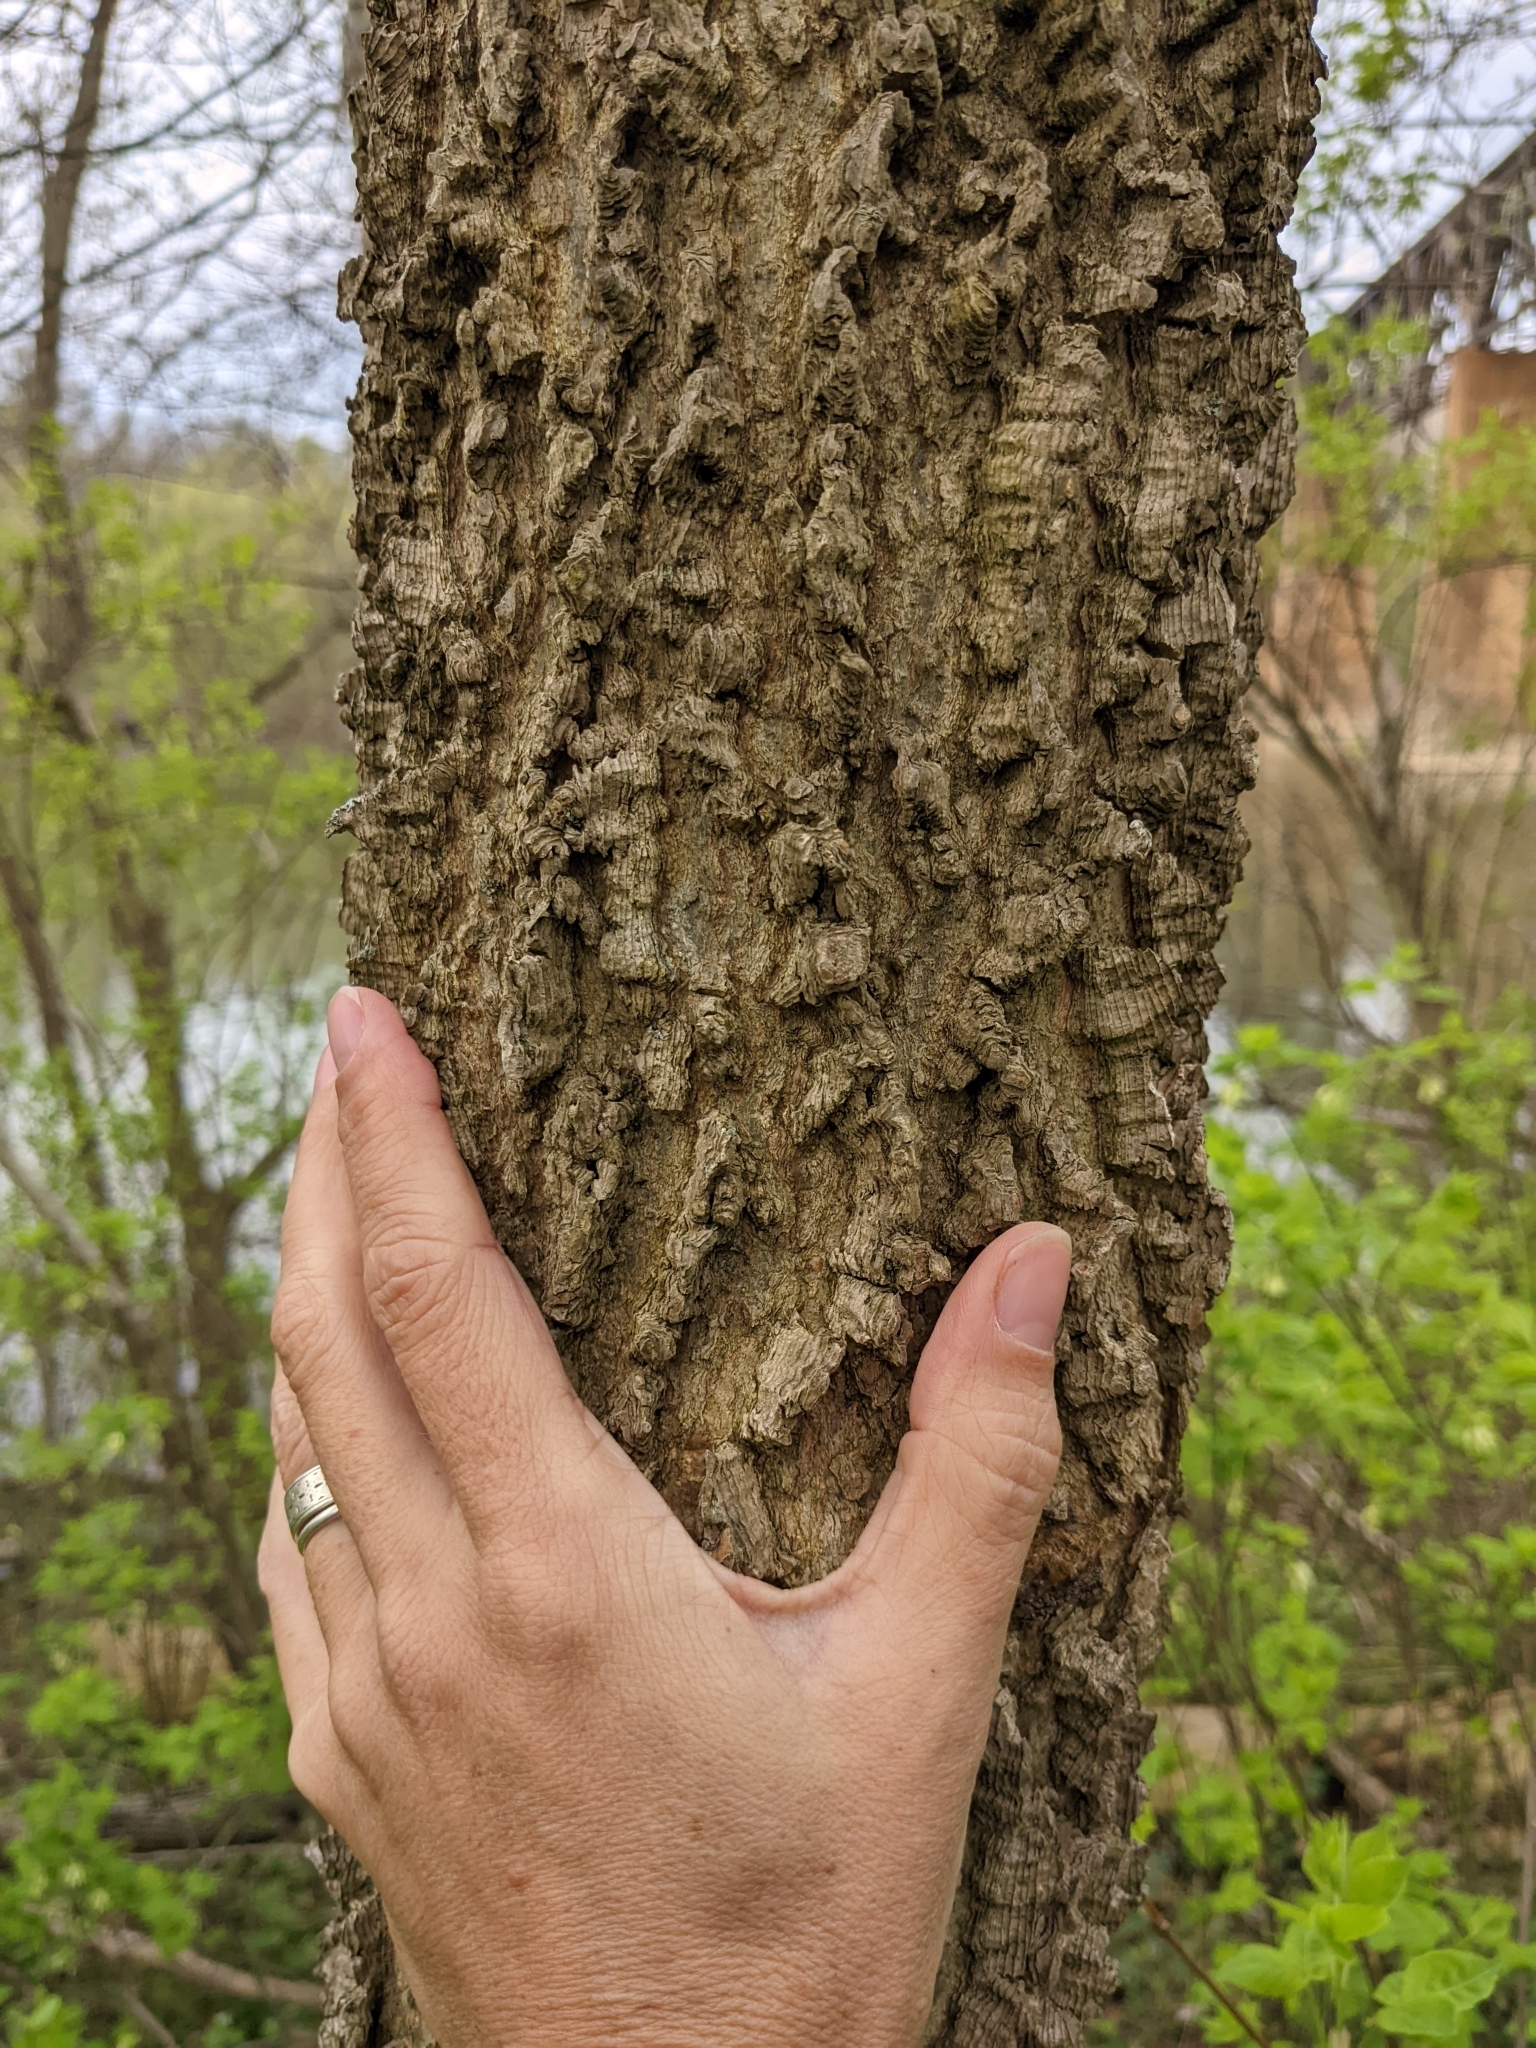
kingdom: Plantae
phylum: Tracheophyta
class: Magnoliopsida
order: Rosales
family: Cannabaceae
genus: Celtis
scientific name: Celtis occidentalis
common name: Common hackberry
